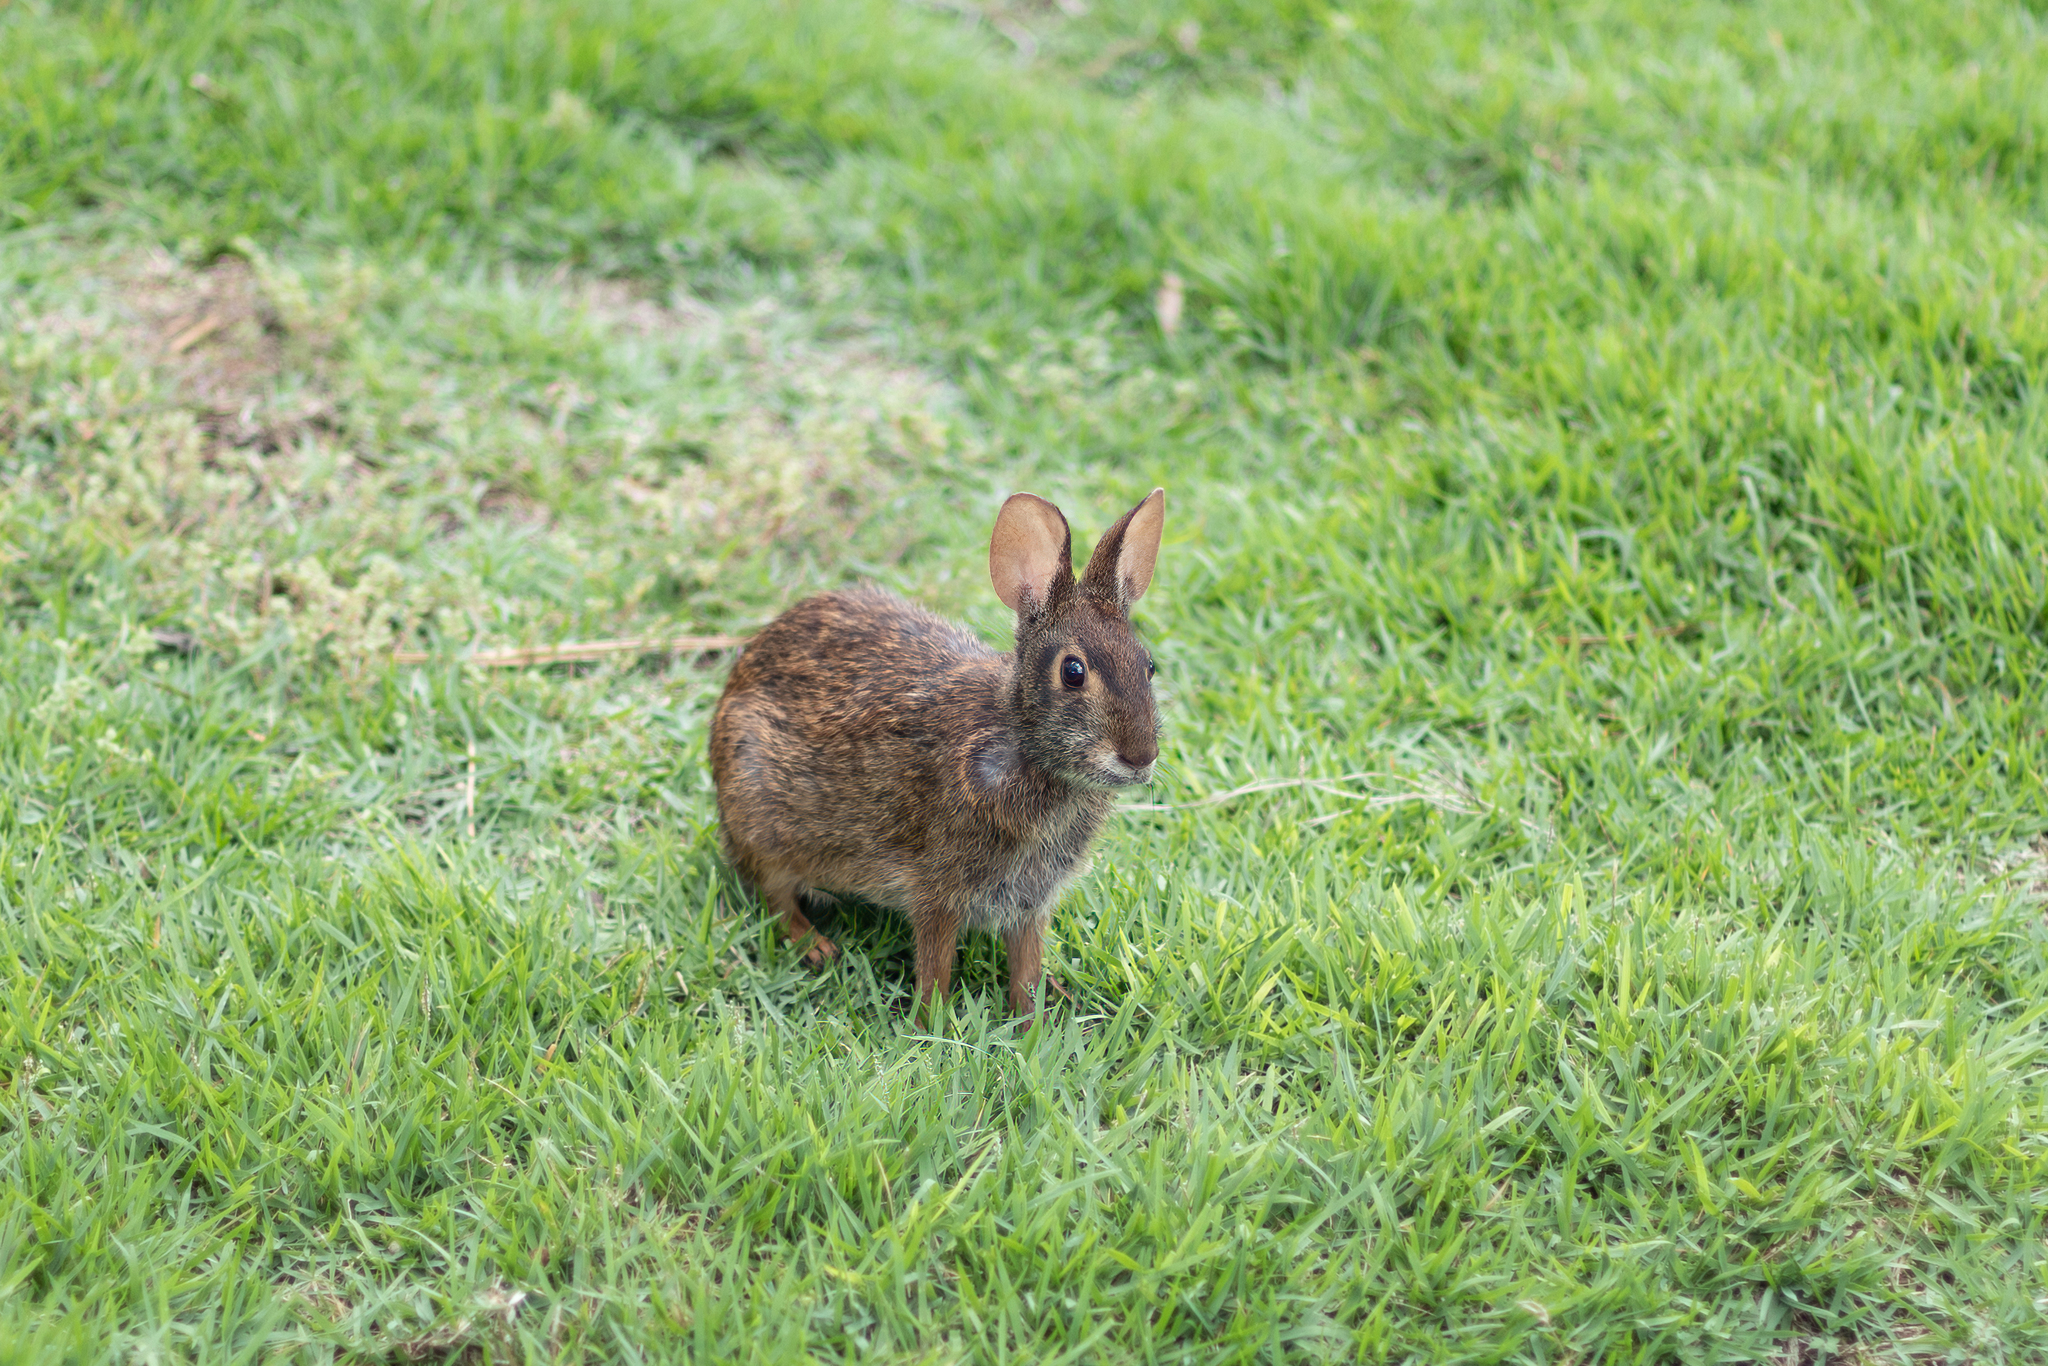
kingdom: Animalia
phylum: Chordata
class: Mammalia
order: Lagomorpha
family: Leporidae
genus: Sylvilagus
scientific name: Sylvilagus palustris
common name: Marsh rabbit
